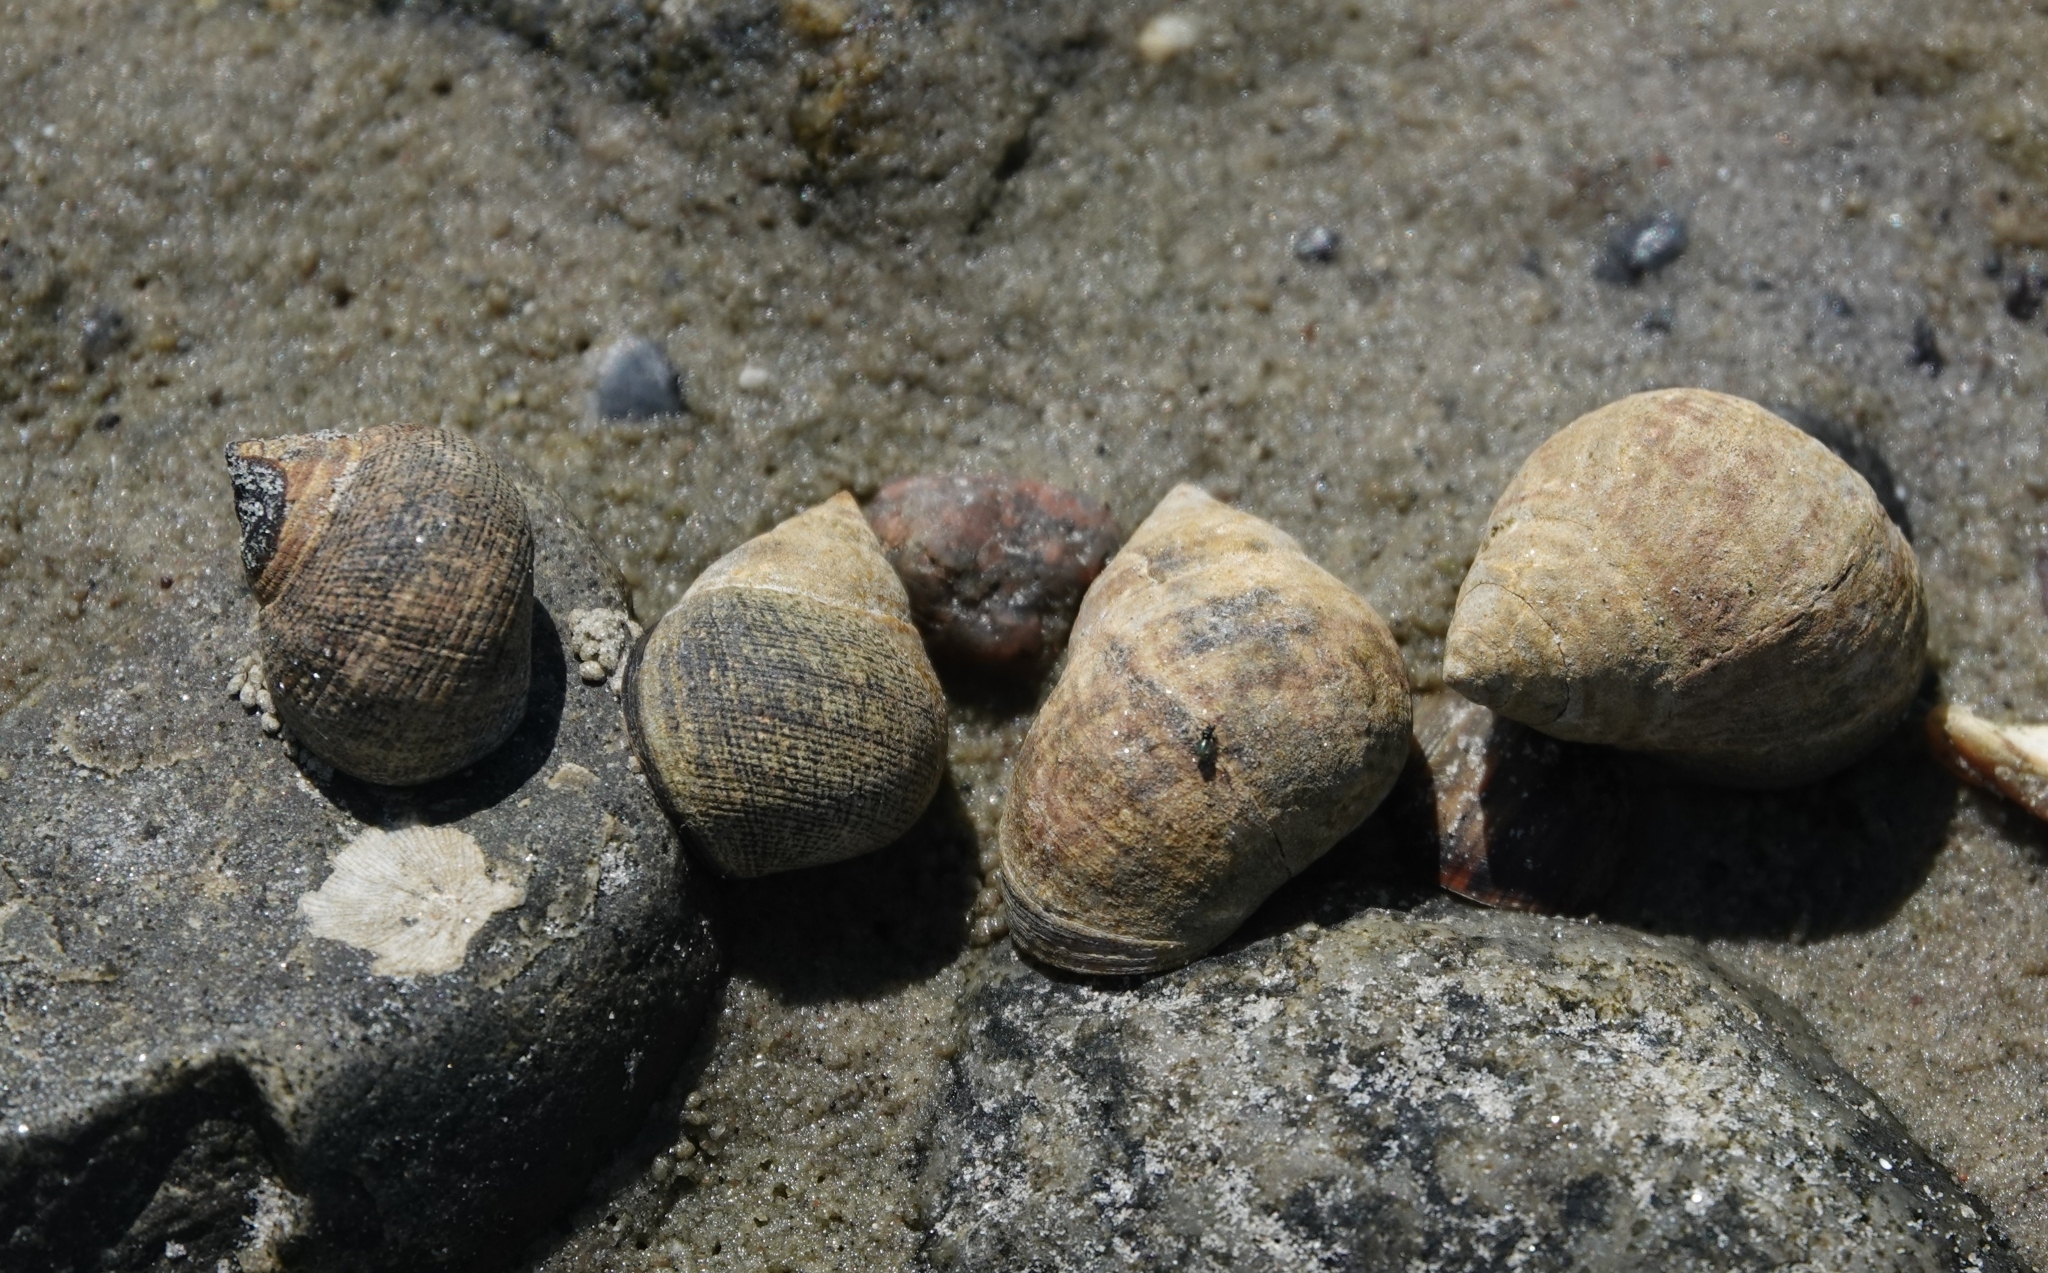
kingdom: Animalia
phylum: Mollusca
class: Gastropoda
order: Littorinimorpha
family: Littorinidae
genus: Littorina
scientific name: Littorina littorea
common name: Common periwinkle
